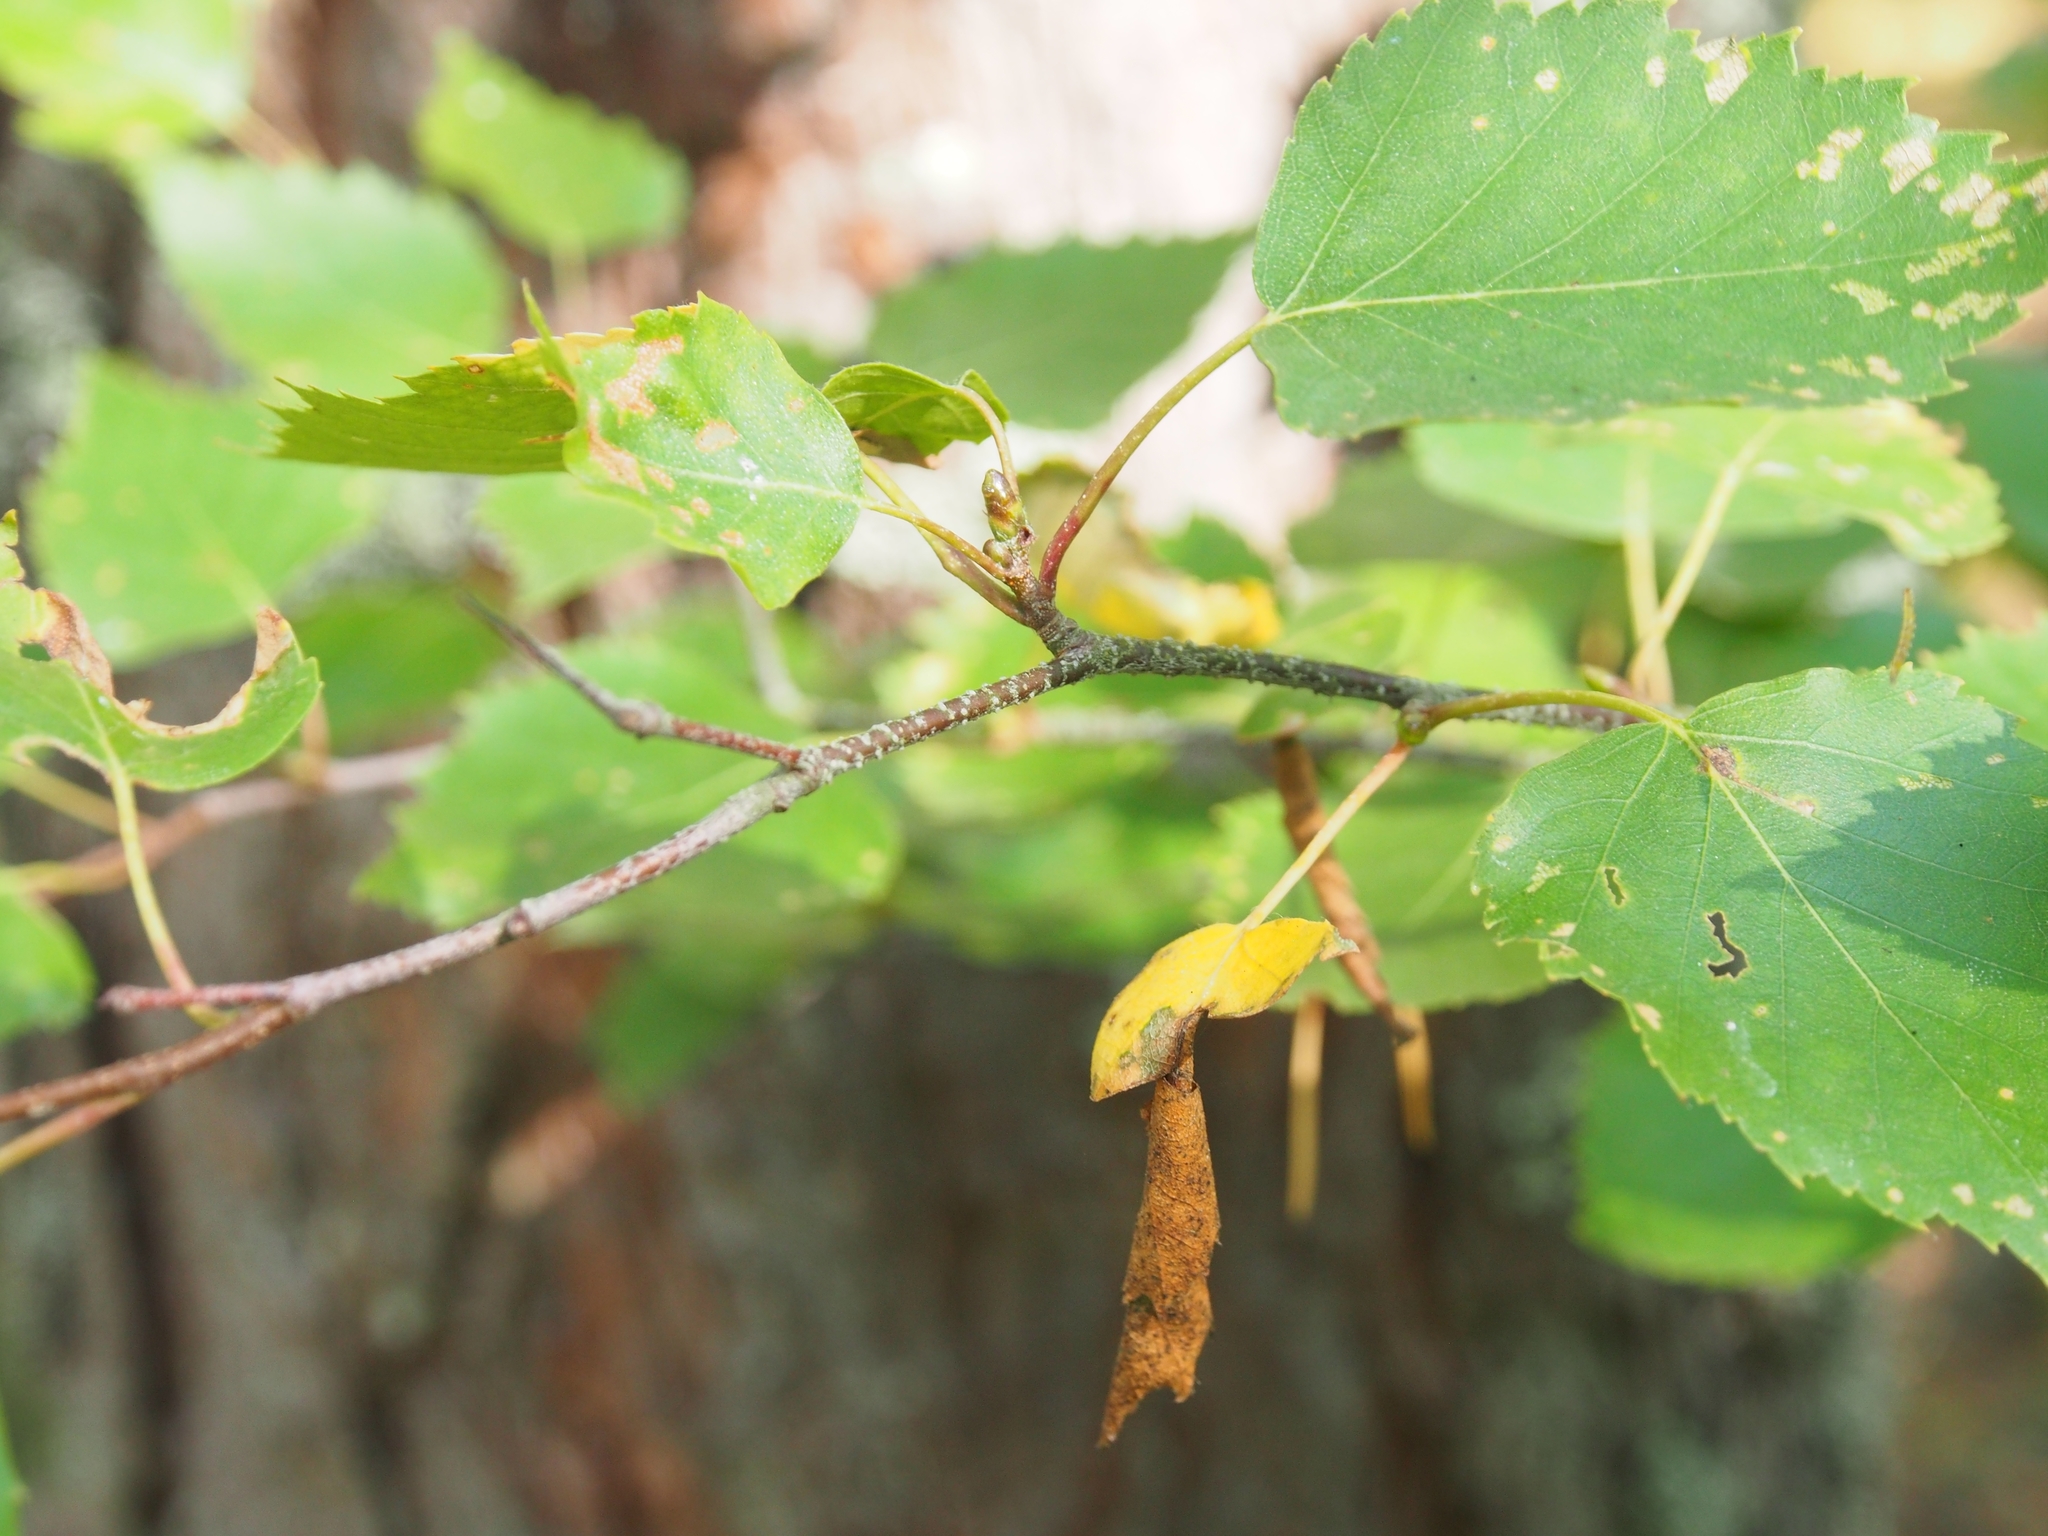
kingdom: Animalia
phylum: Arthropoda
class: Insecta
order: Coleoptera
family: Attelabidae
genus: Deporaus
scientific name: Deporaus betulae
